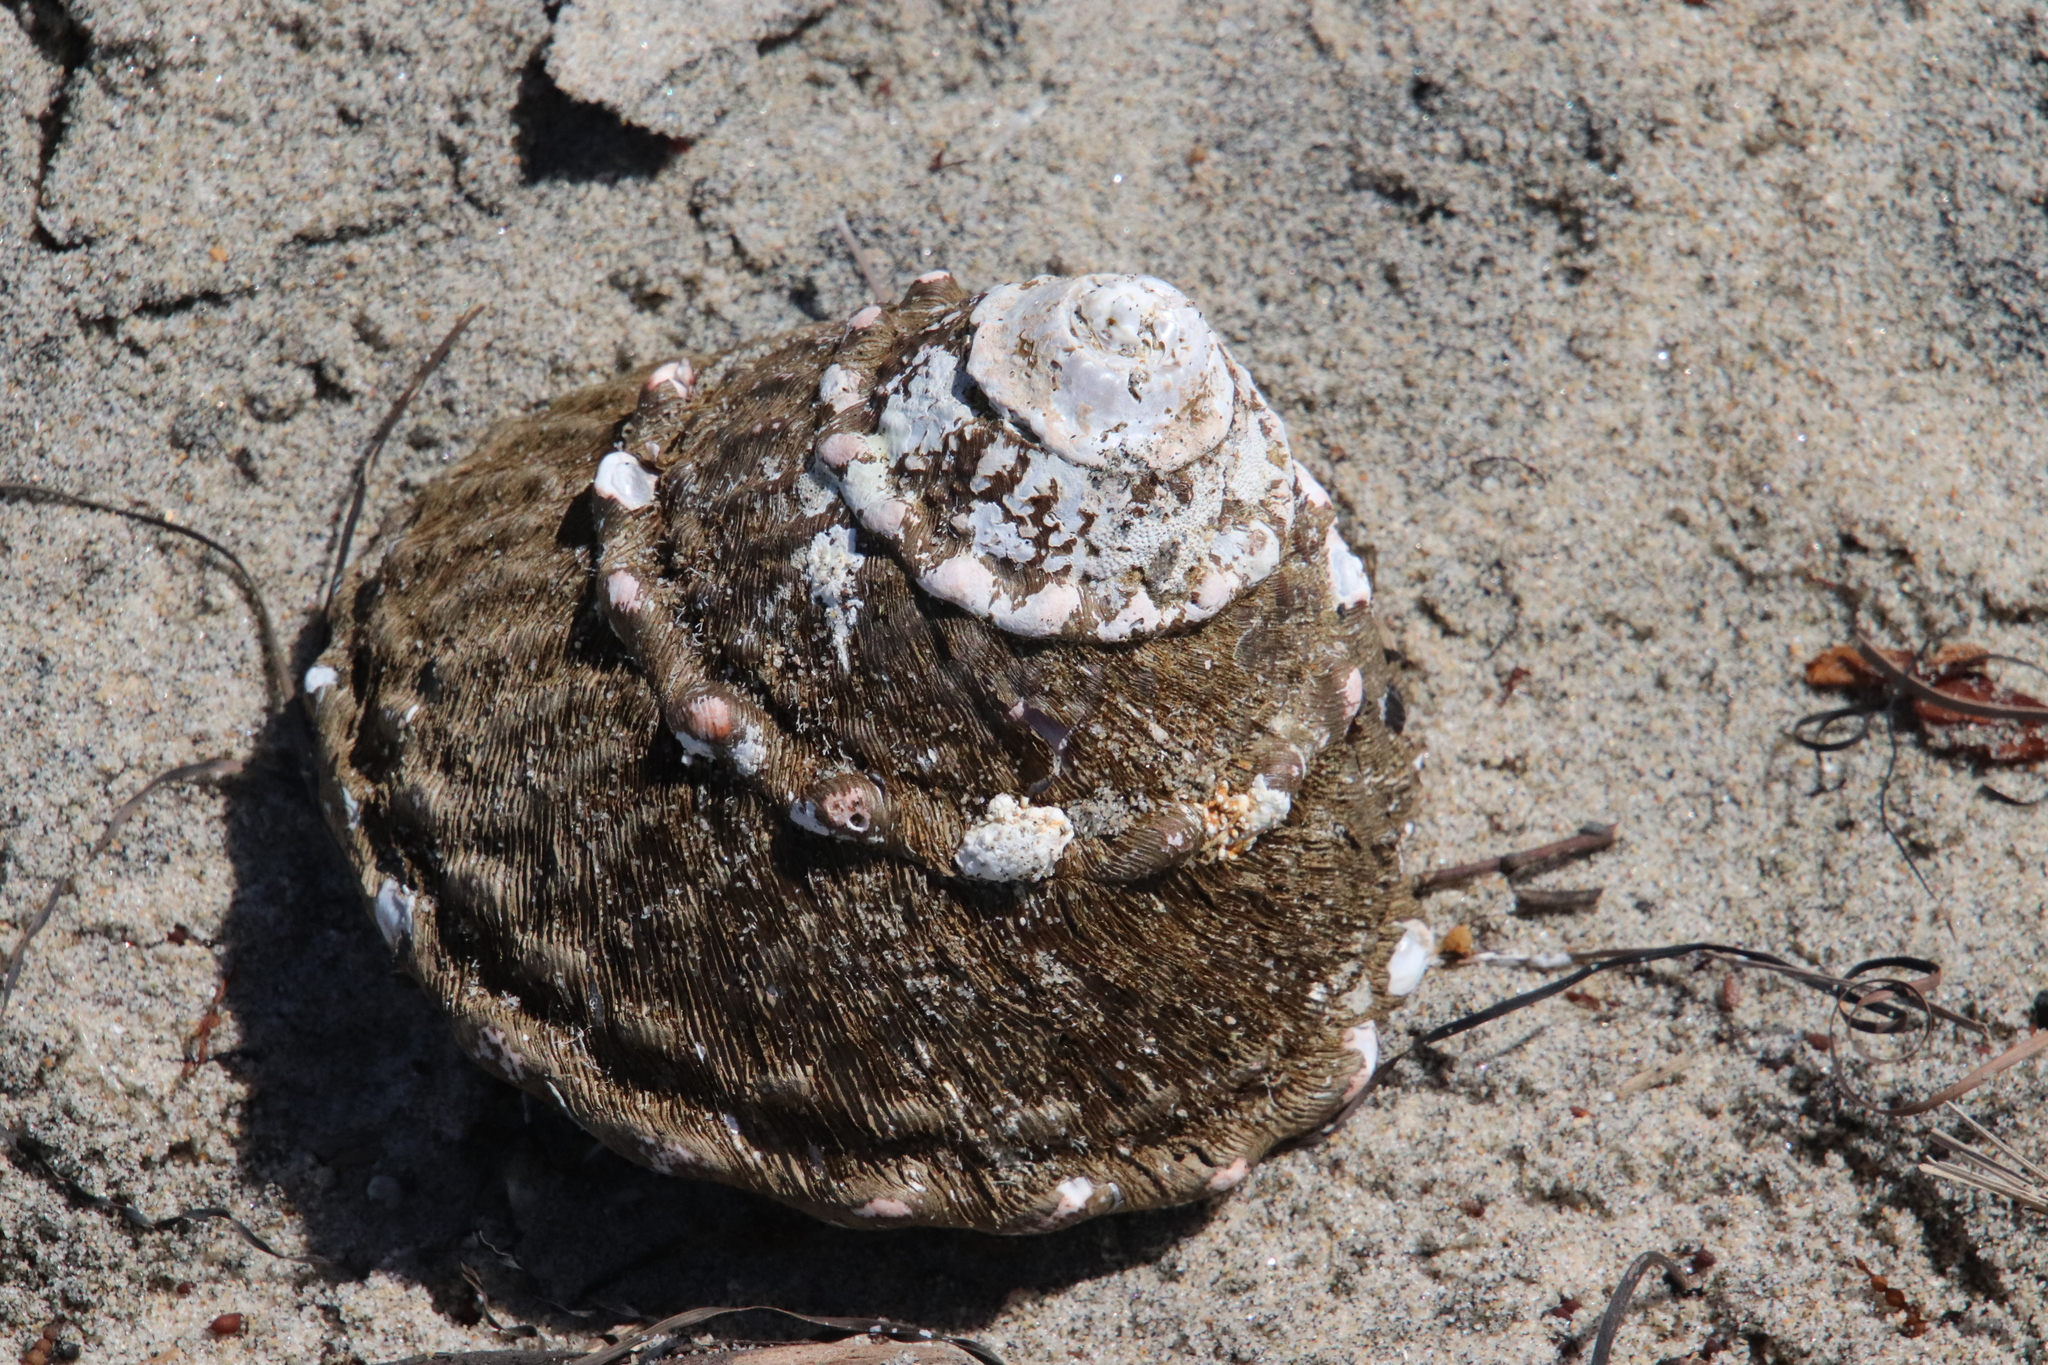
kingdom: Animalia
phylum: Mollusca
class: Gastropoda
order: Trochida
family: Turbinidae
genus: Megastraea
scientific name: Megastraea undosa
